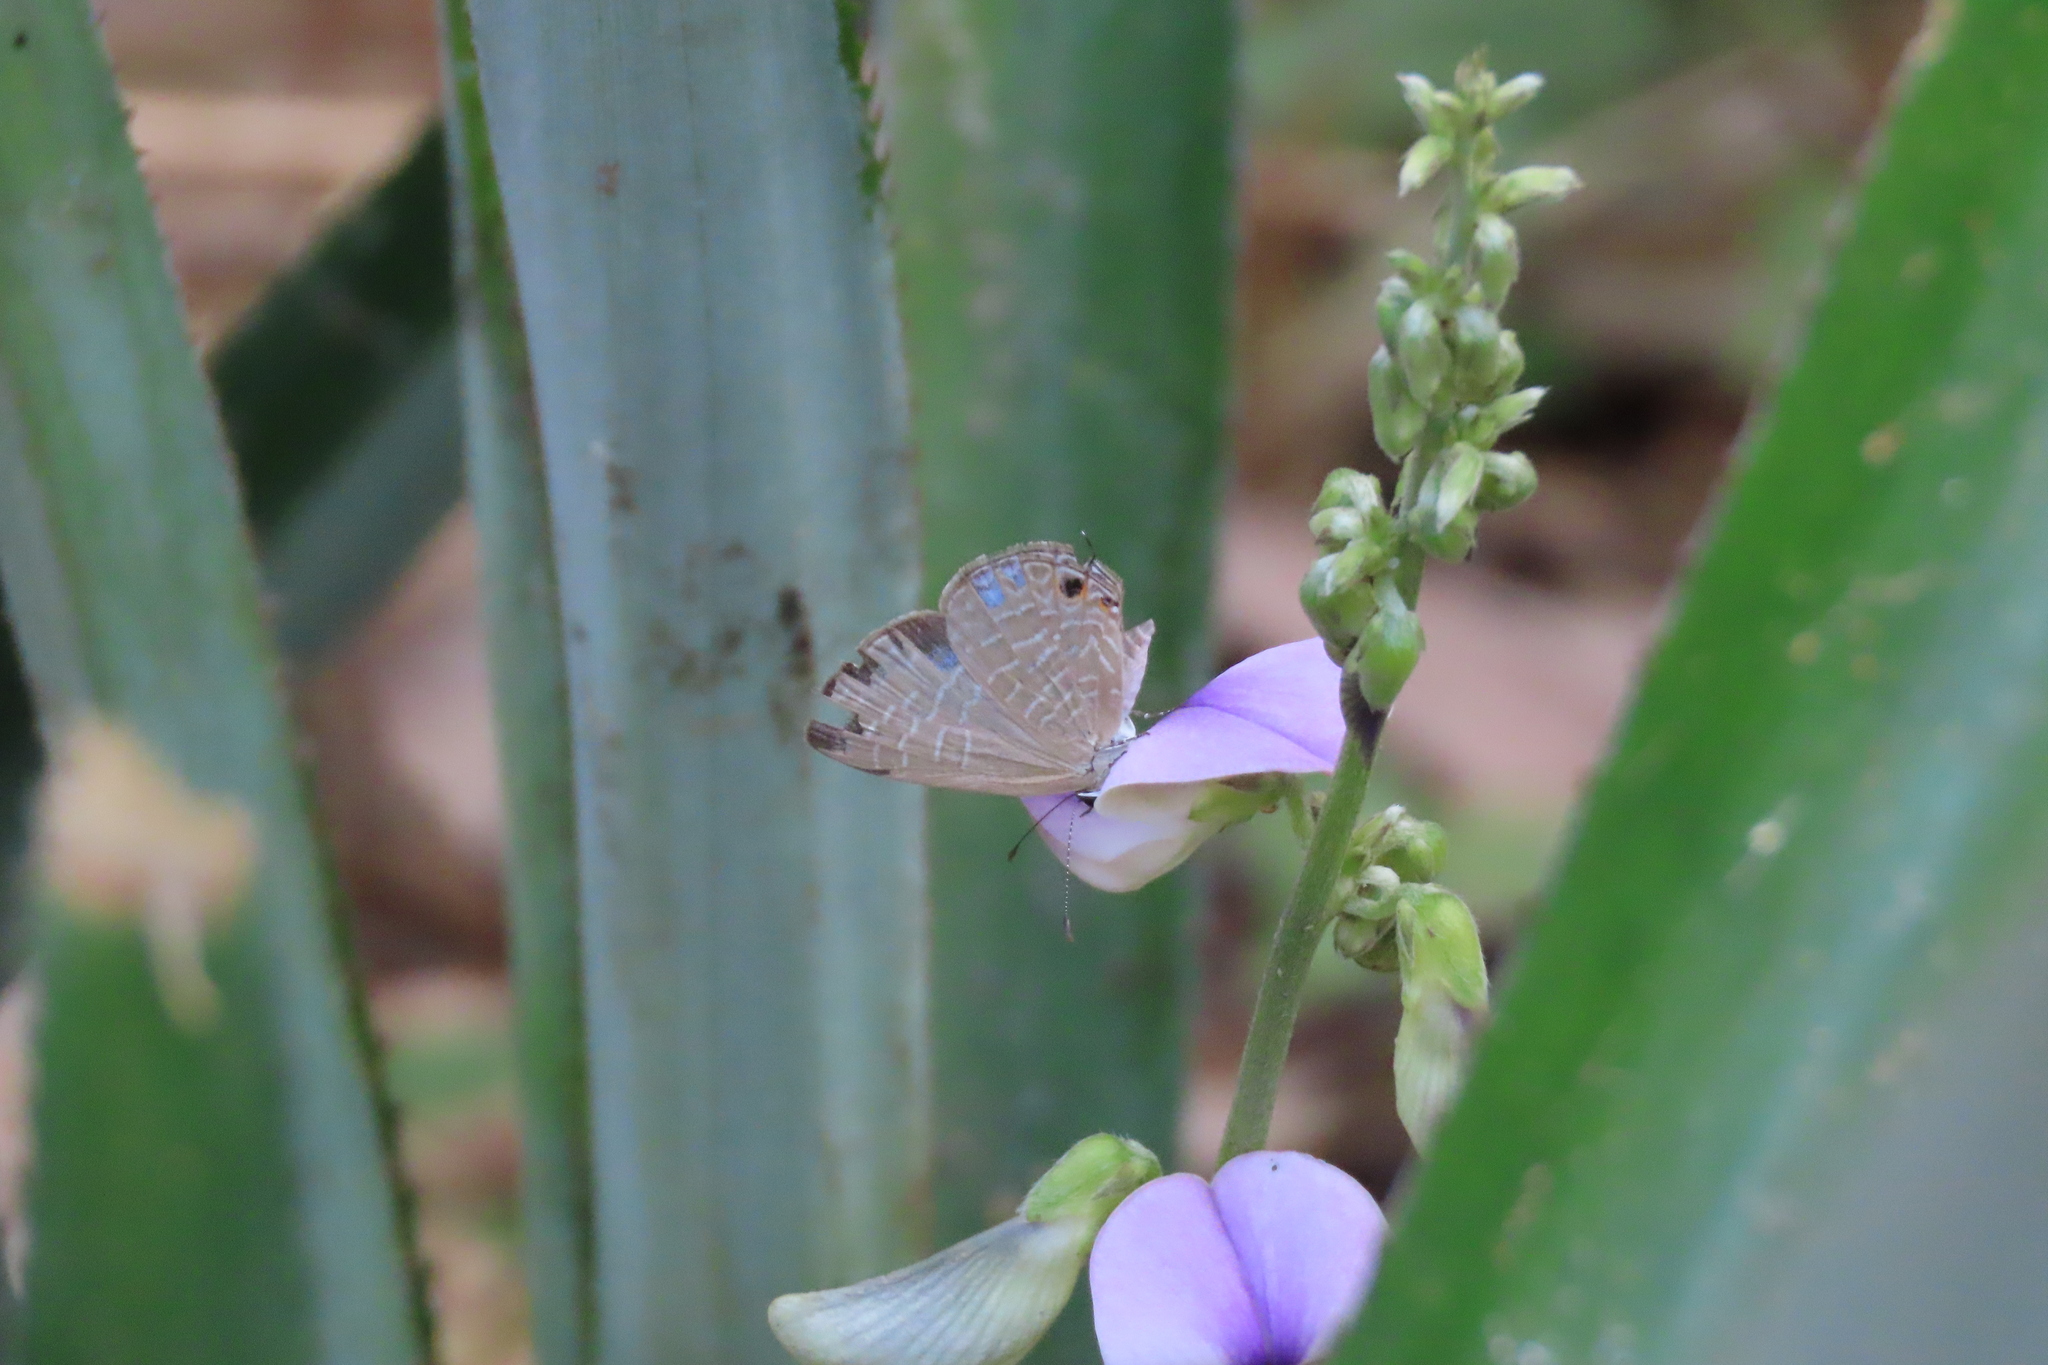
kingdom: Animalia
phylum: Arthropoda
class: Insecta
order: Lepidoptera
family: Lycaenidae
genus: Jamides
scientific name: Jamides bochus
